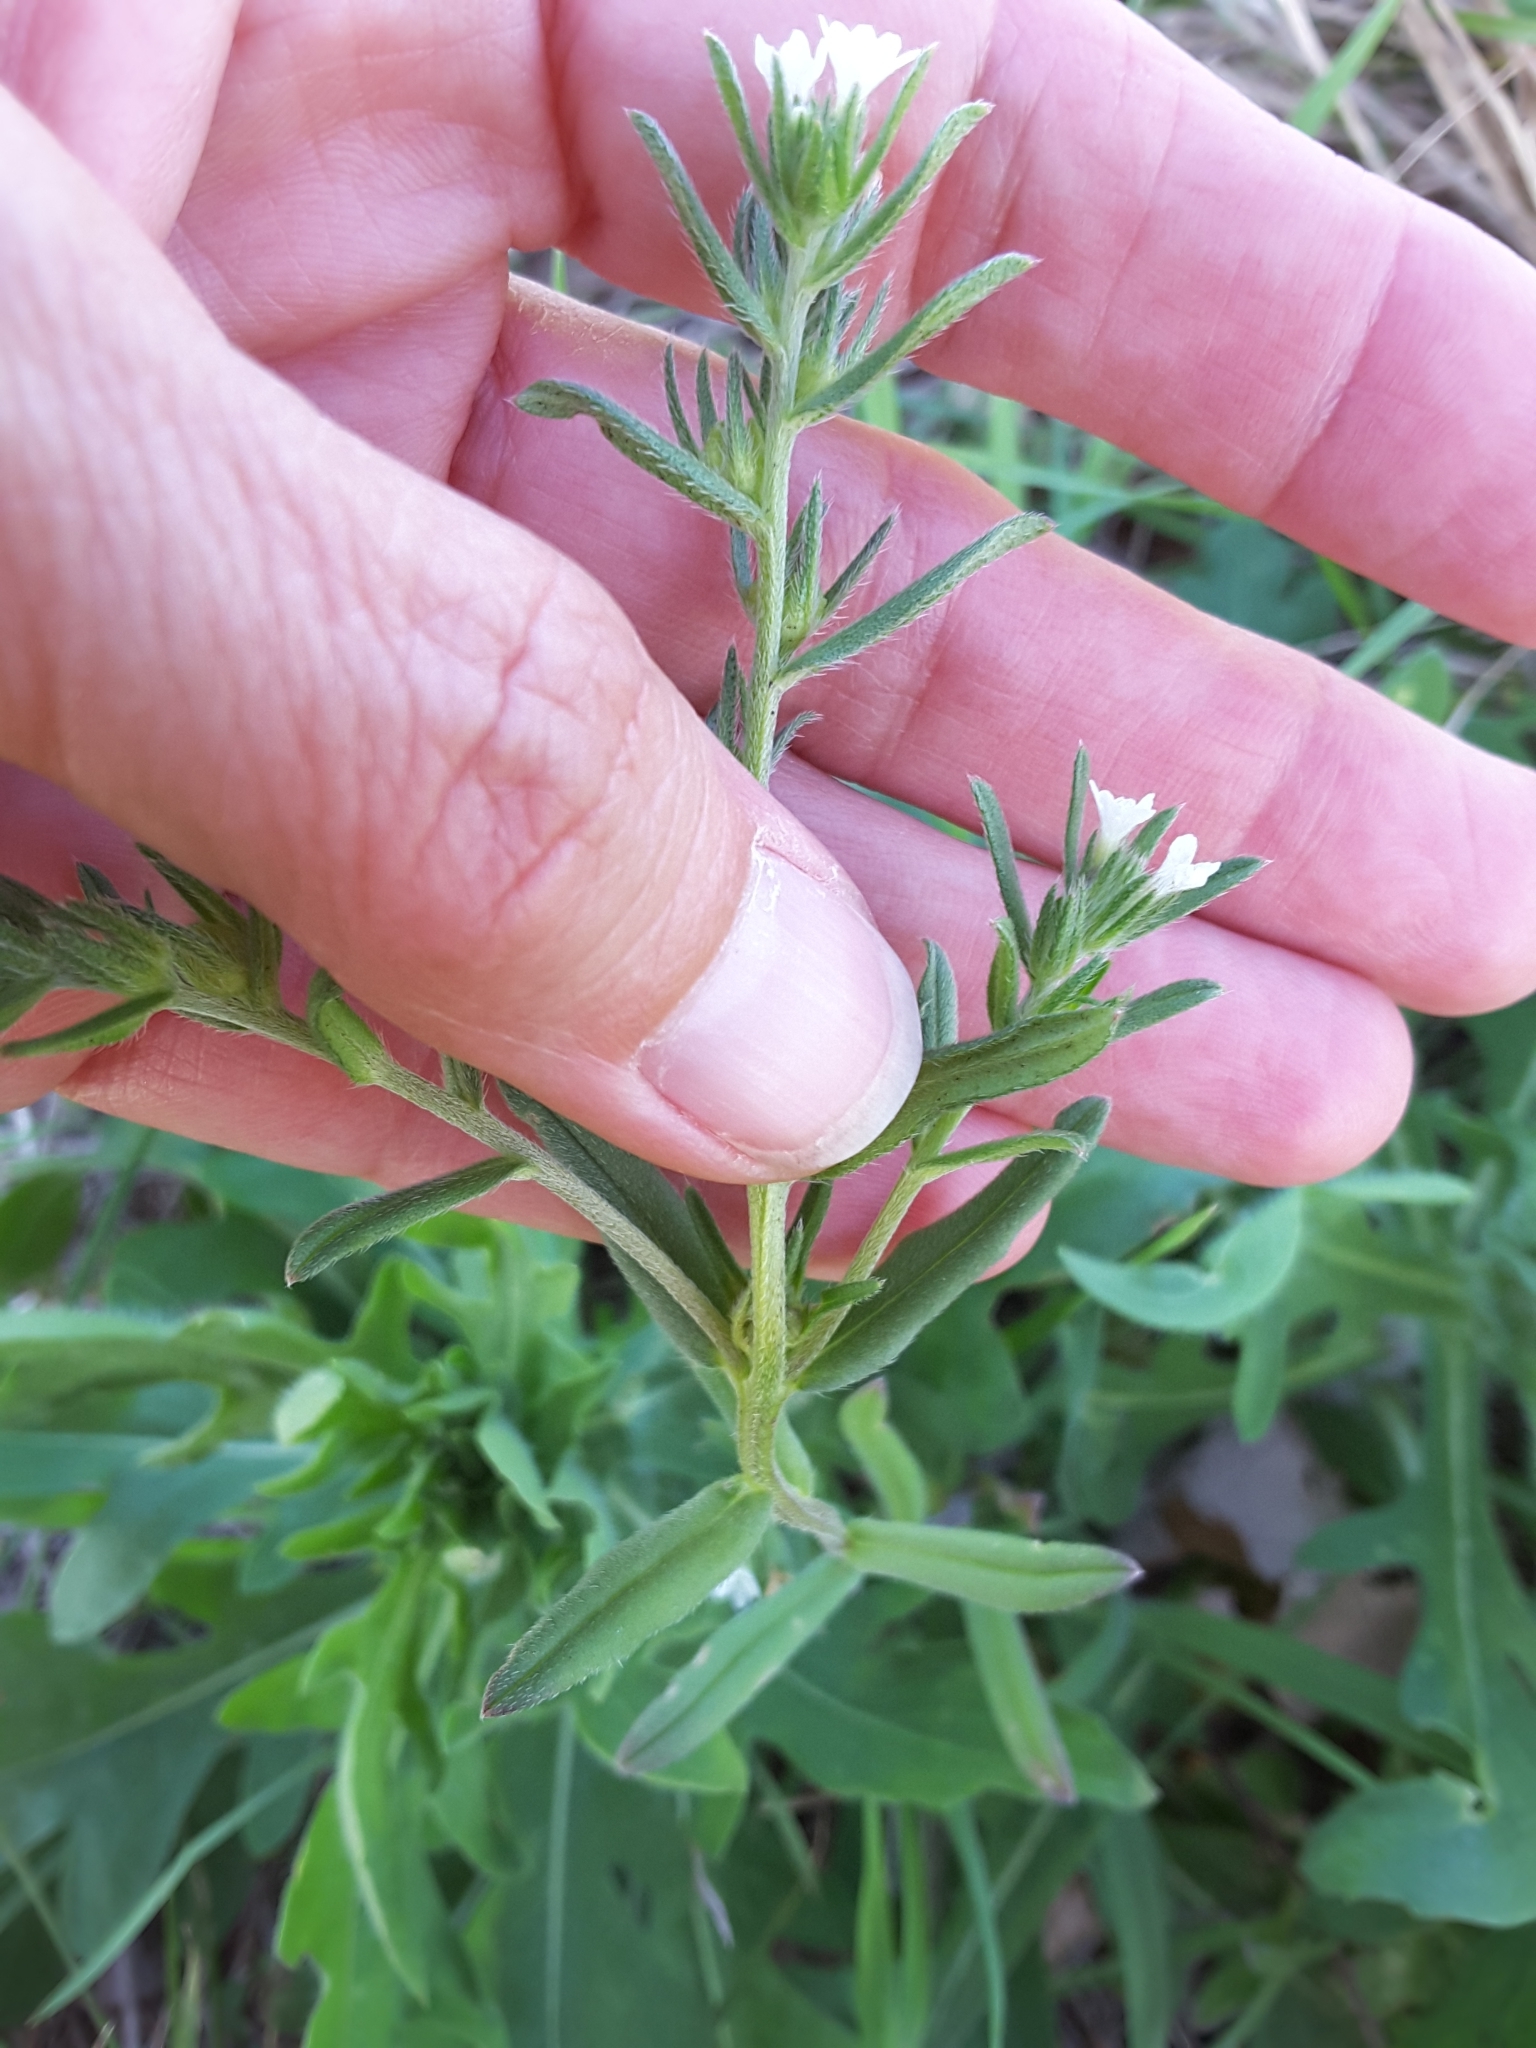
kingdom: Plantae
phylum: Tracheophyta
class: Magnoliopsida
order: Boraginales
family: Boraginaceae
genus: Buglossoides
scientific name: Buglossoides arvensis
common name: Corn gromwell
